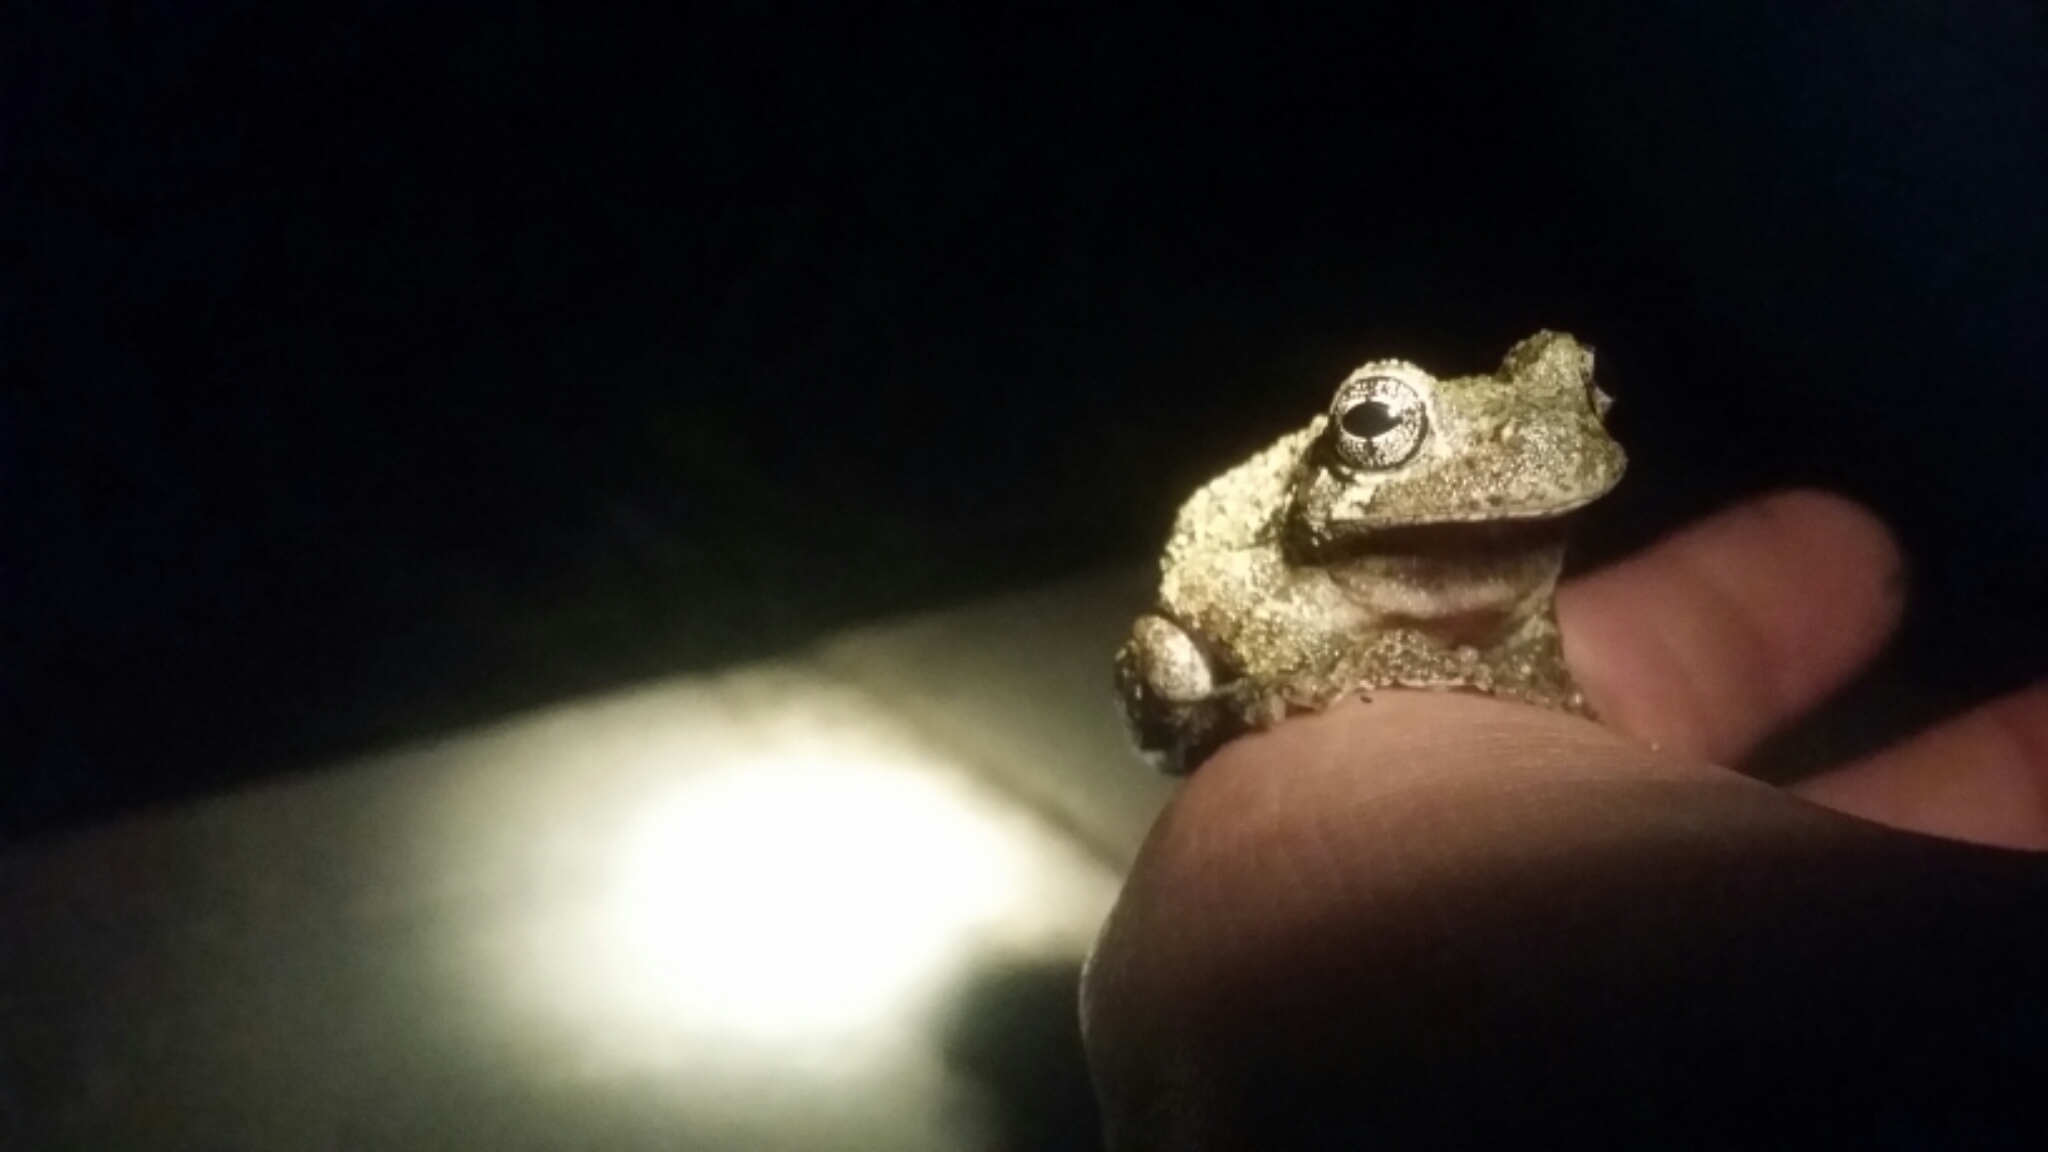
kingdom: Animalia
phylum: Chordata
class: Amphibia
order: Anura
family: Hylidae
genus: Hyla
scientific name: Hyla
